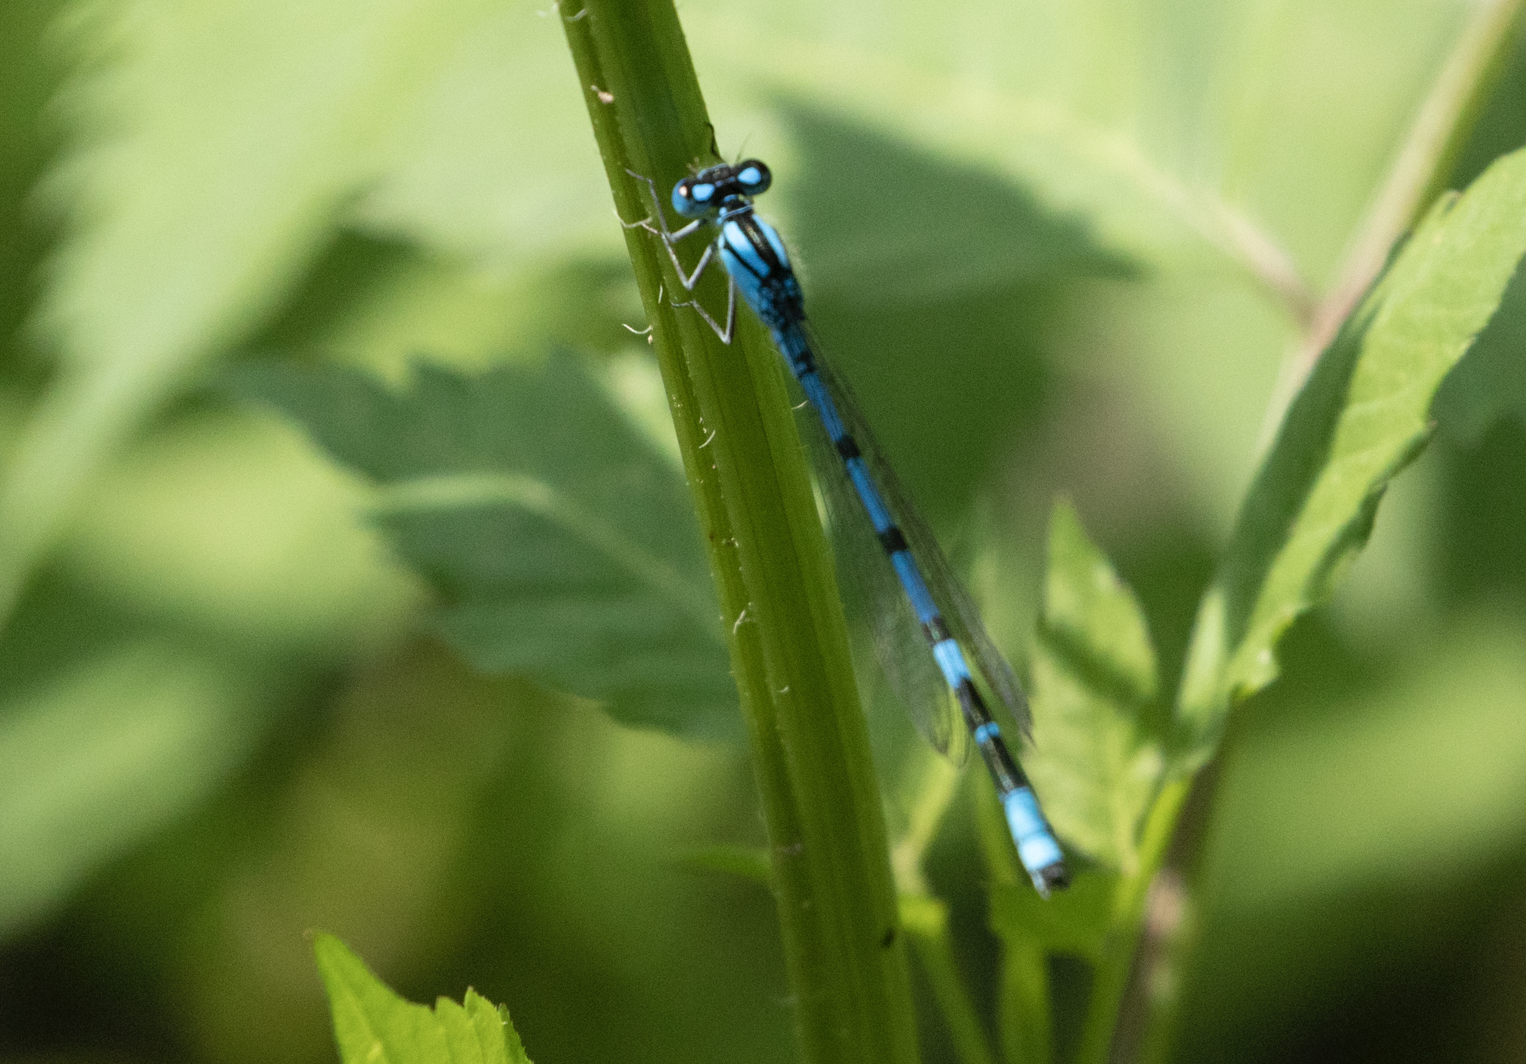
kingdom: Animalia
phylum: Arthropoda
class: Insecta
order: Odonata
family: Coenagrionidae
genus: Enallagma
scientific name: Enallagma cyathigerum
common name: Common blue damselfly
